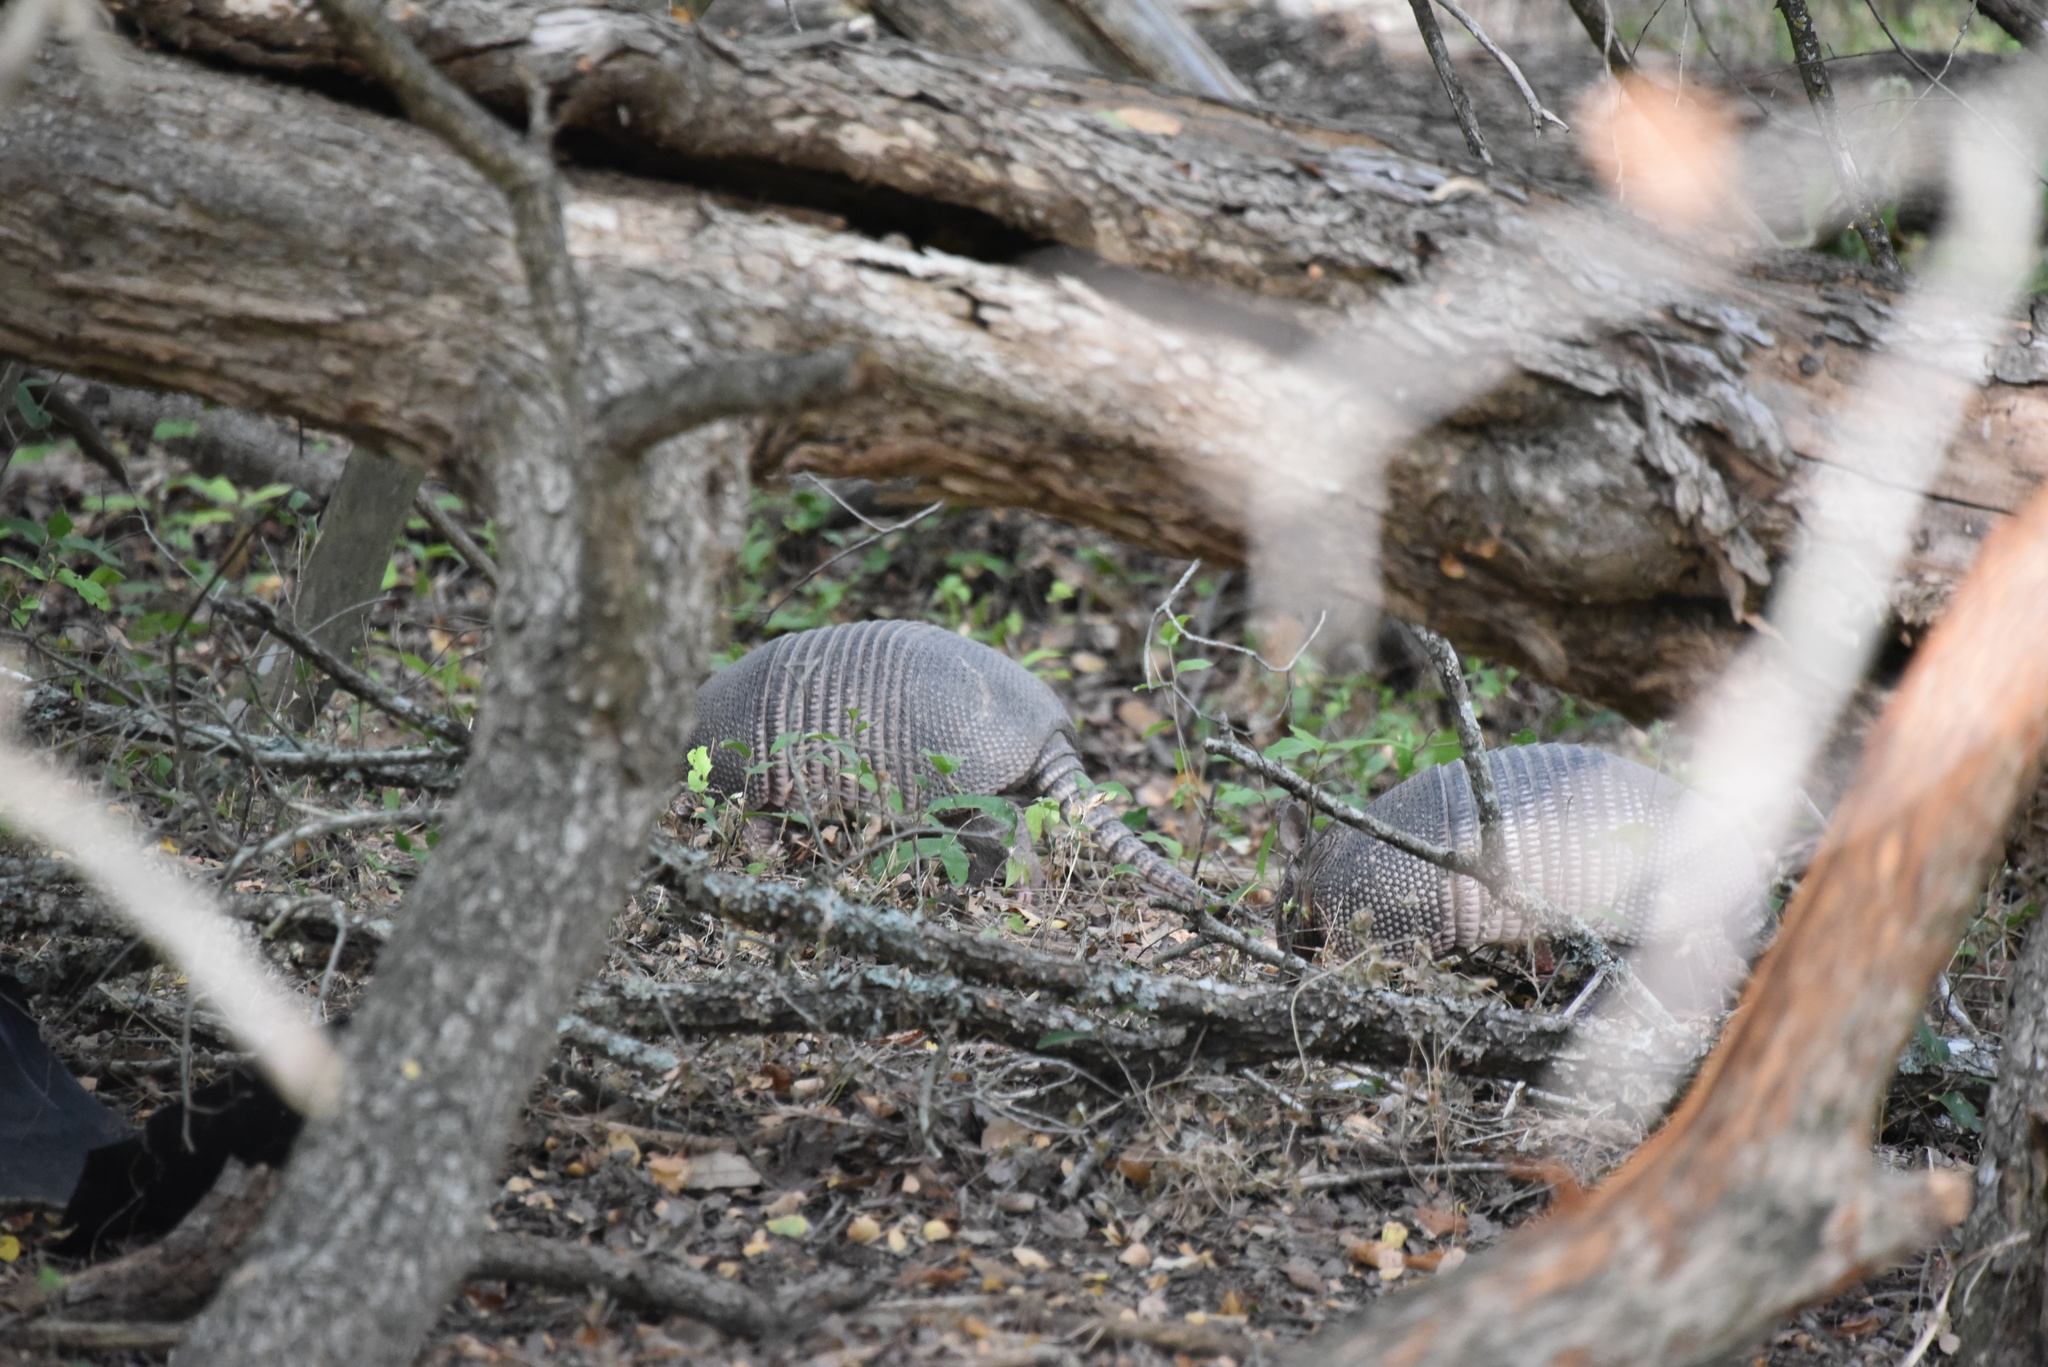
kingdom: Animalia
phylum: Chordata
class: Mammalia
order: Cingulata
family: Dasypodidae
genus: Dasypus
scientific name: Dasypus novemcinctus
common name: Nine-banded armadillo
